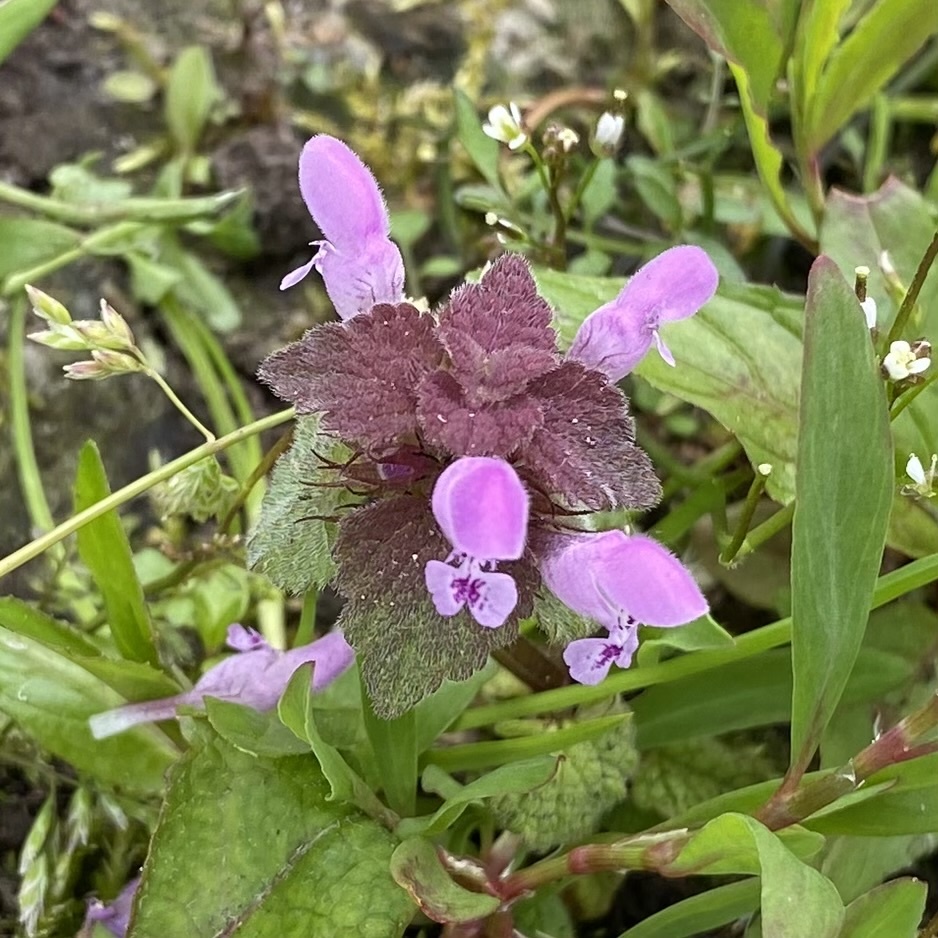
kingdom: Plantae
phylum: Tracheophyta
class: Magnoliopsida
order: Lamiales
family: Lamiaceae
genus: Lamium
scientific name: Lamium purpureum
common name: Red dead-nettle
